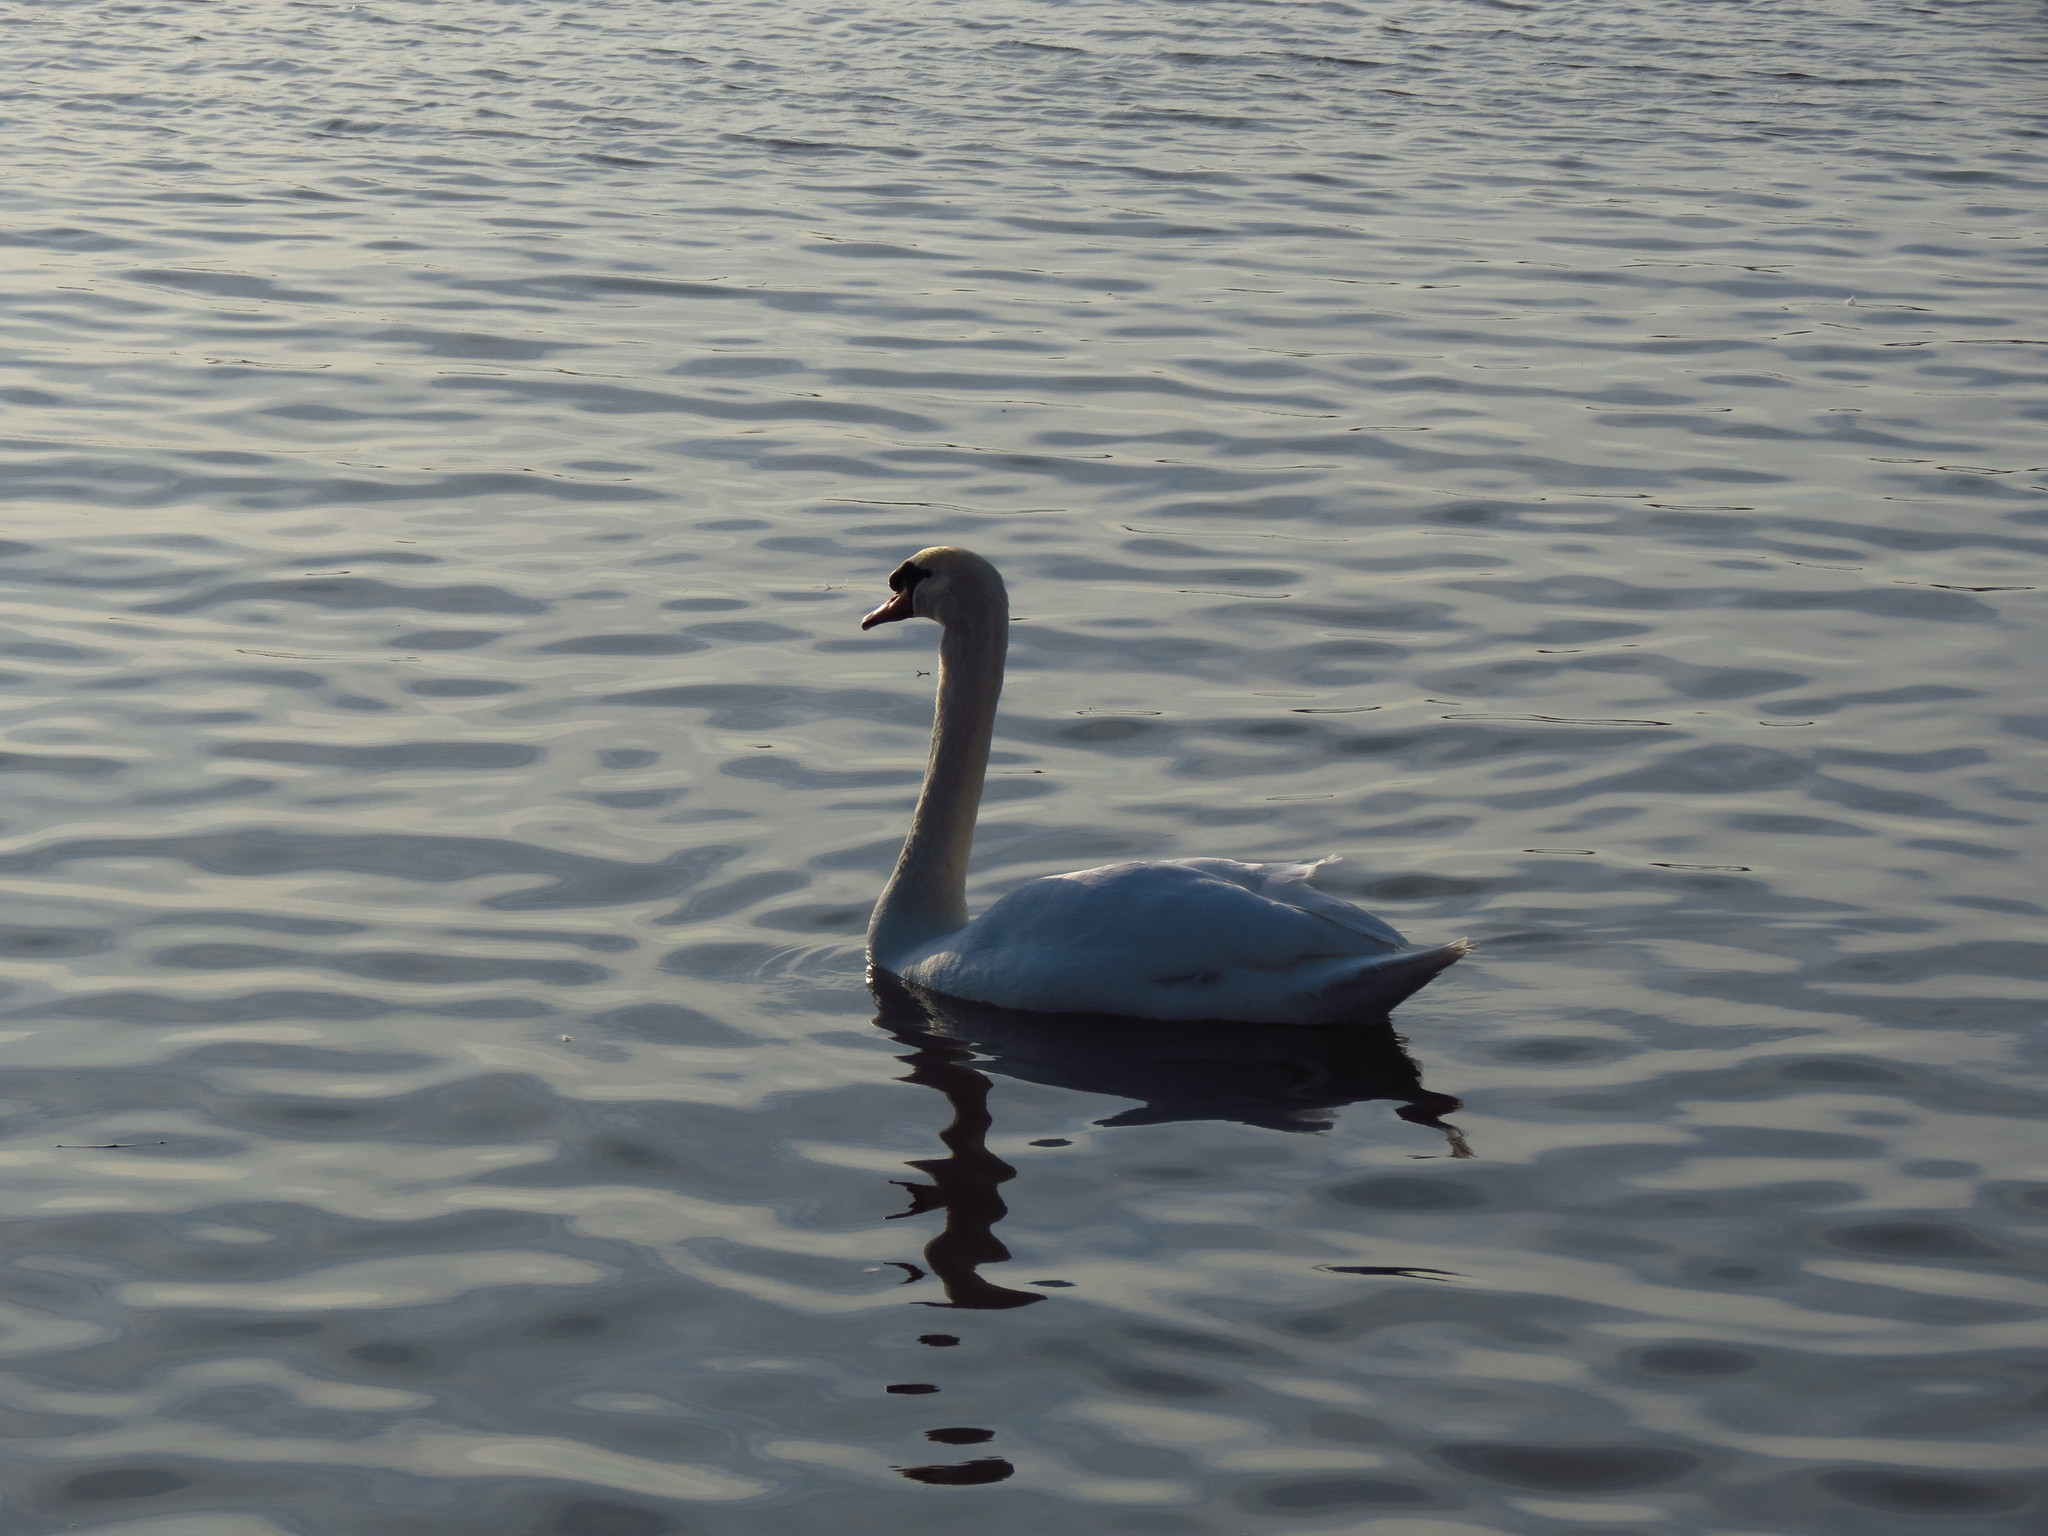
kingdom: Animalia
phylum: Chordata
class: Aves
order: Anseriformes
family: Anatidae
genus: Cygnus
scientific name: Cygnus olor
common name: Mute swan
